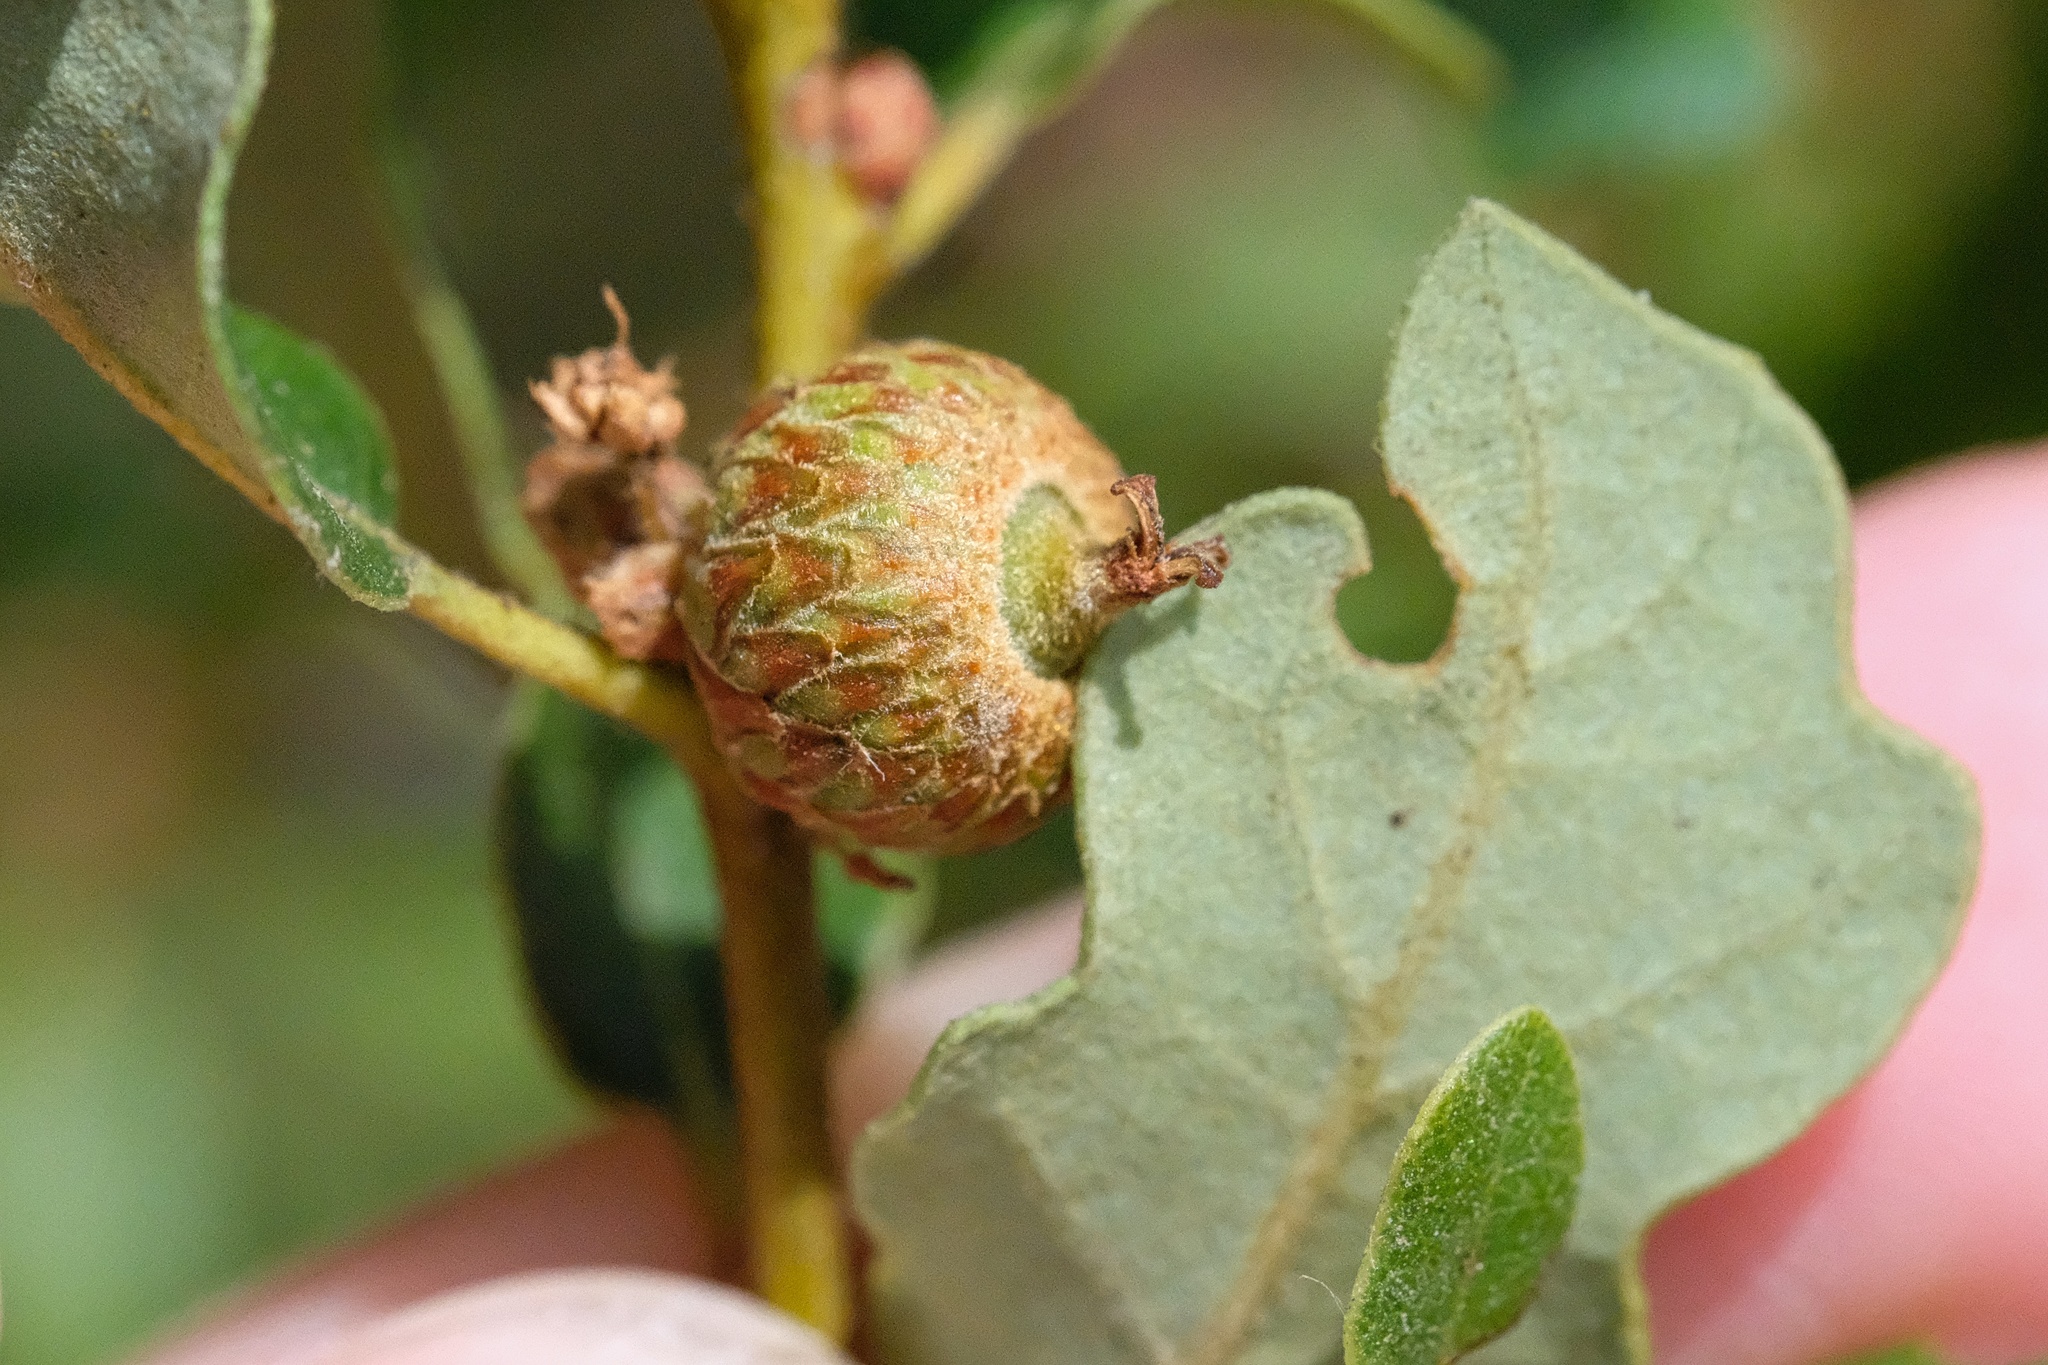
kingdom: Plantae
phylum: Tracheophyta
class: Magnoliopsida
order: Fagales
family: Fagaceae
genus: Quercus
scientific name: Quercus acutidens
